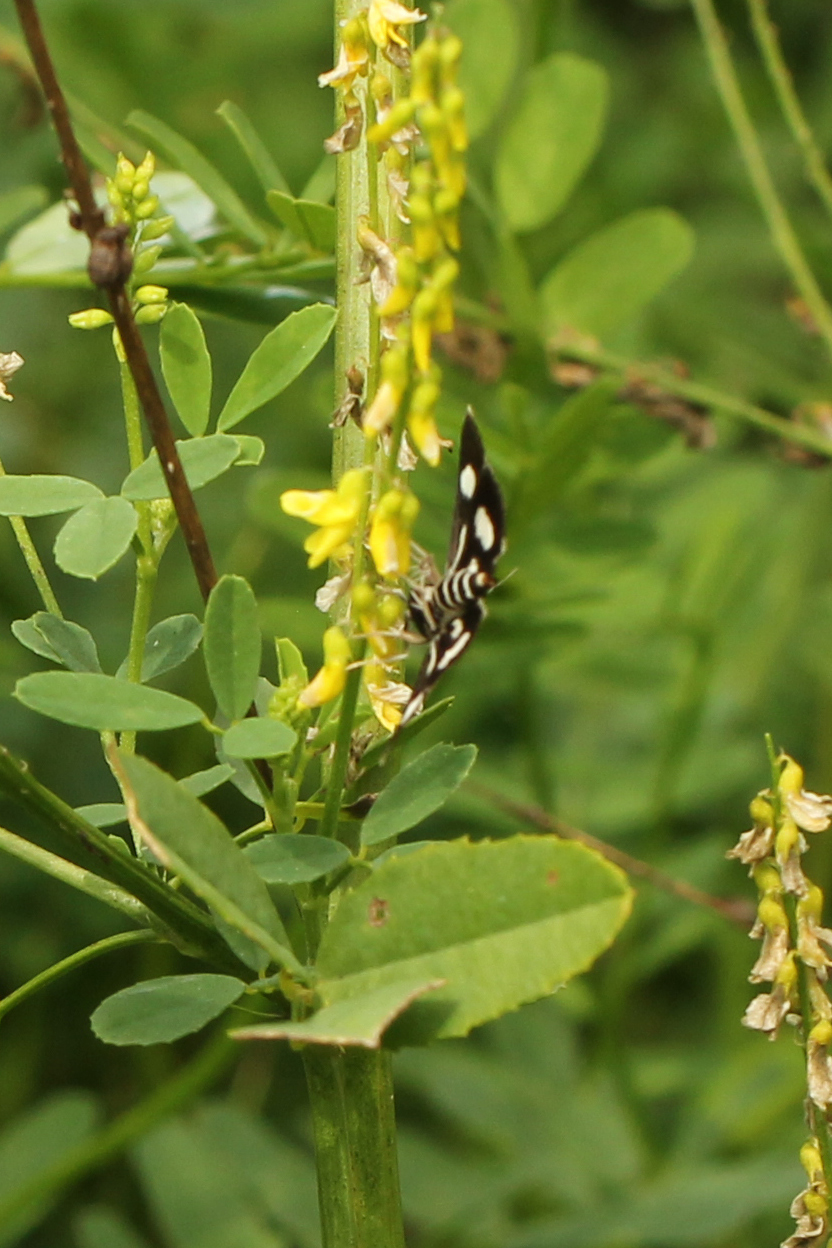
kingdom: Animalia
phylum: Arthropoda
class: Insecta
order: Lepidoptera
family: Crambidae
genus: Anania
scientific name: Anania funebris
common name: White-spotted sable moth
